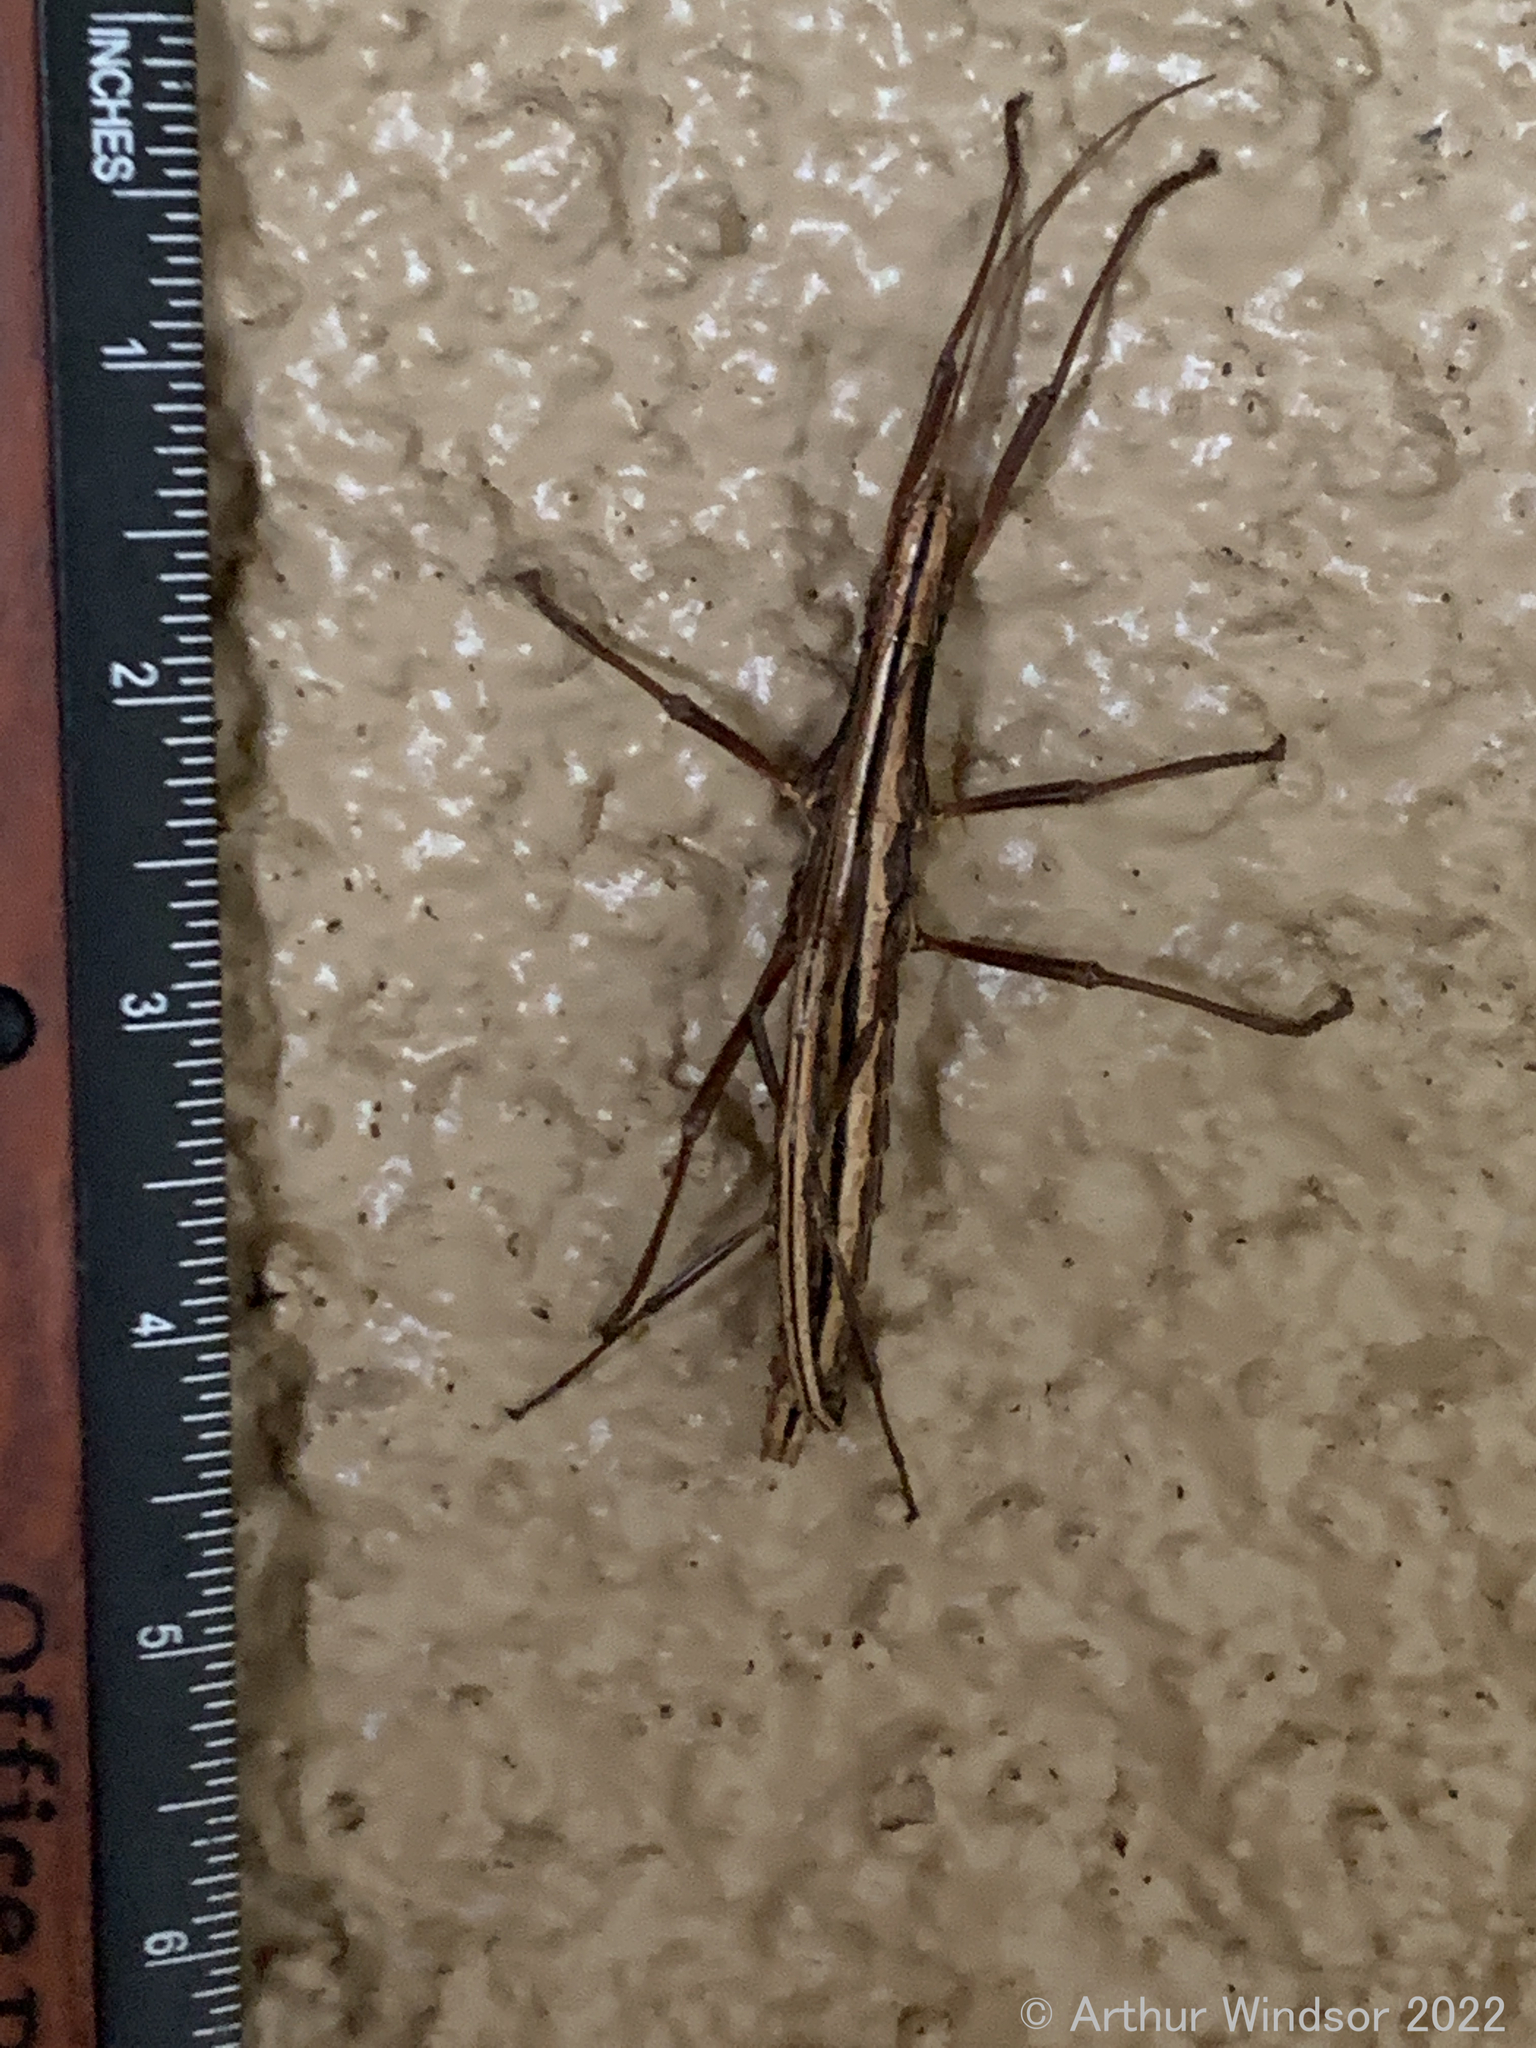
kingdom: Animalia
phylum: Arthropoda
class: Insecta
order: Phasmida
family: Pseudophasmatidae
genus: Anisomorpha
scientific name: Anisomorpha buprestoides
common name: Florida stick insect
